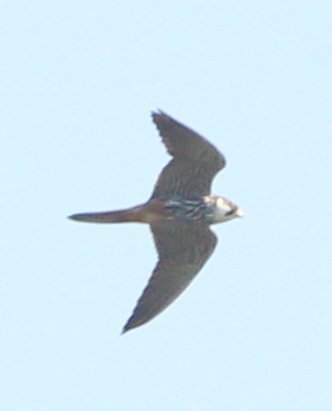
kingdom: Animalia
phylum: Chordata
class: Aves
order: Falconiformes
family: Falconidae
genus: Falco
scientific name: Falco subbuteo
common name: Eurasian hobby
